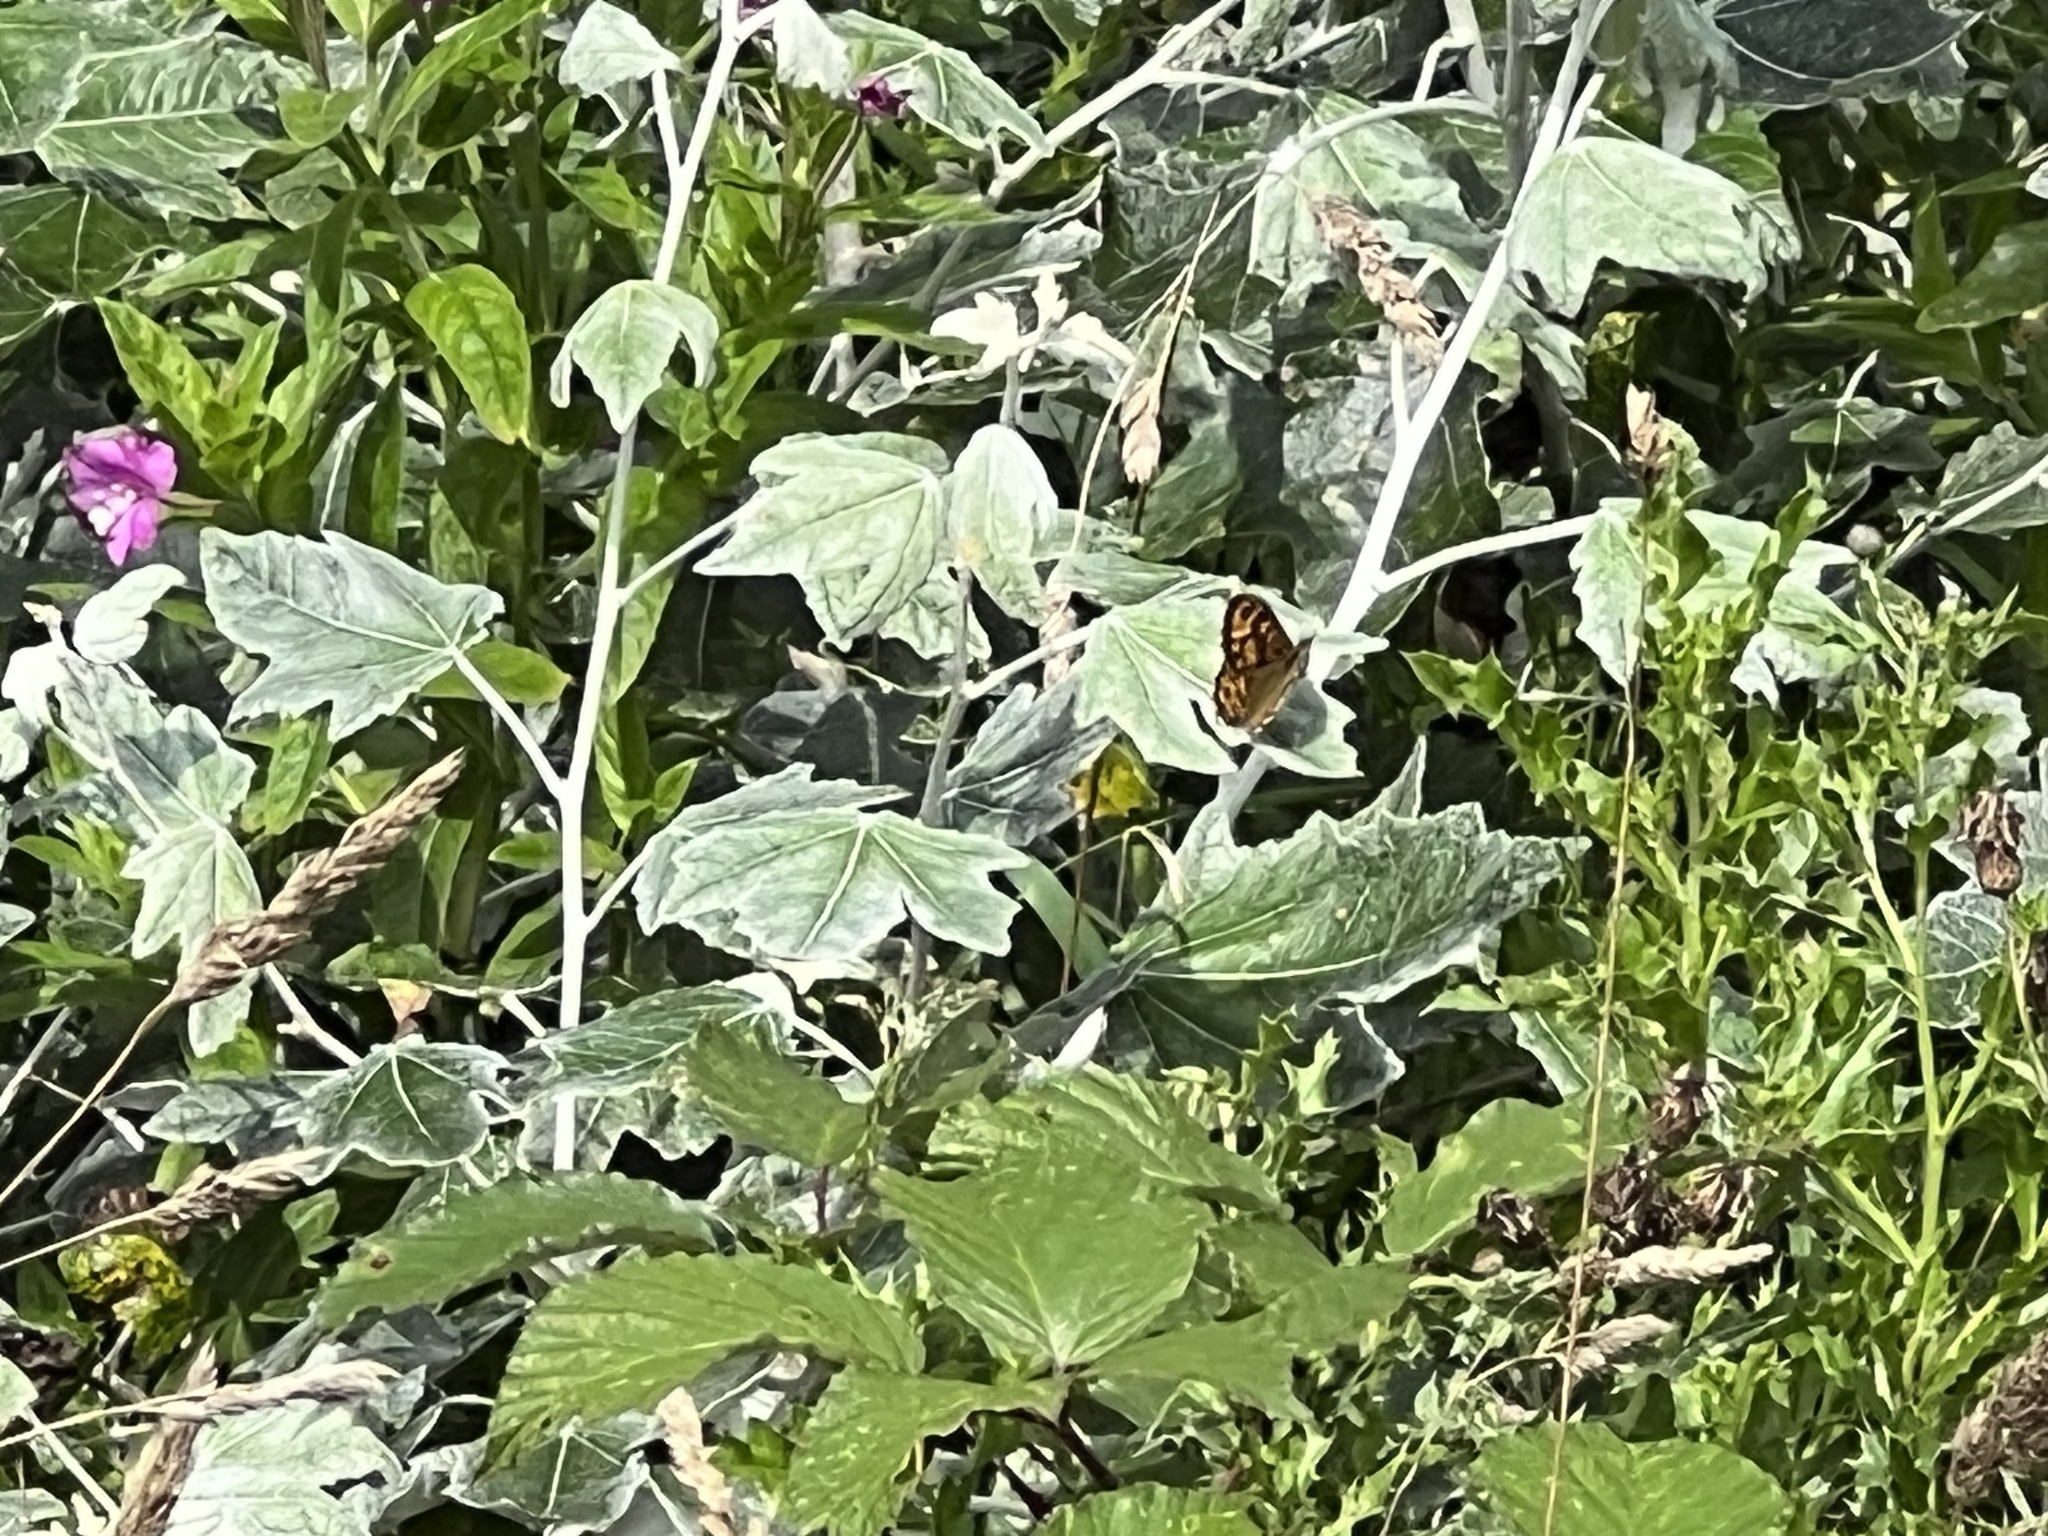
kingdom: Animalia
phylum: Arthropoda
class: Insecta
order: Lepidoptera
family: Nymphalidae
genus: Pararge
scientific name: Pararge Lasiommata megera
